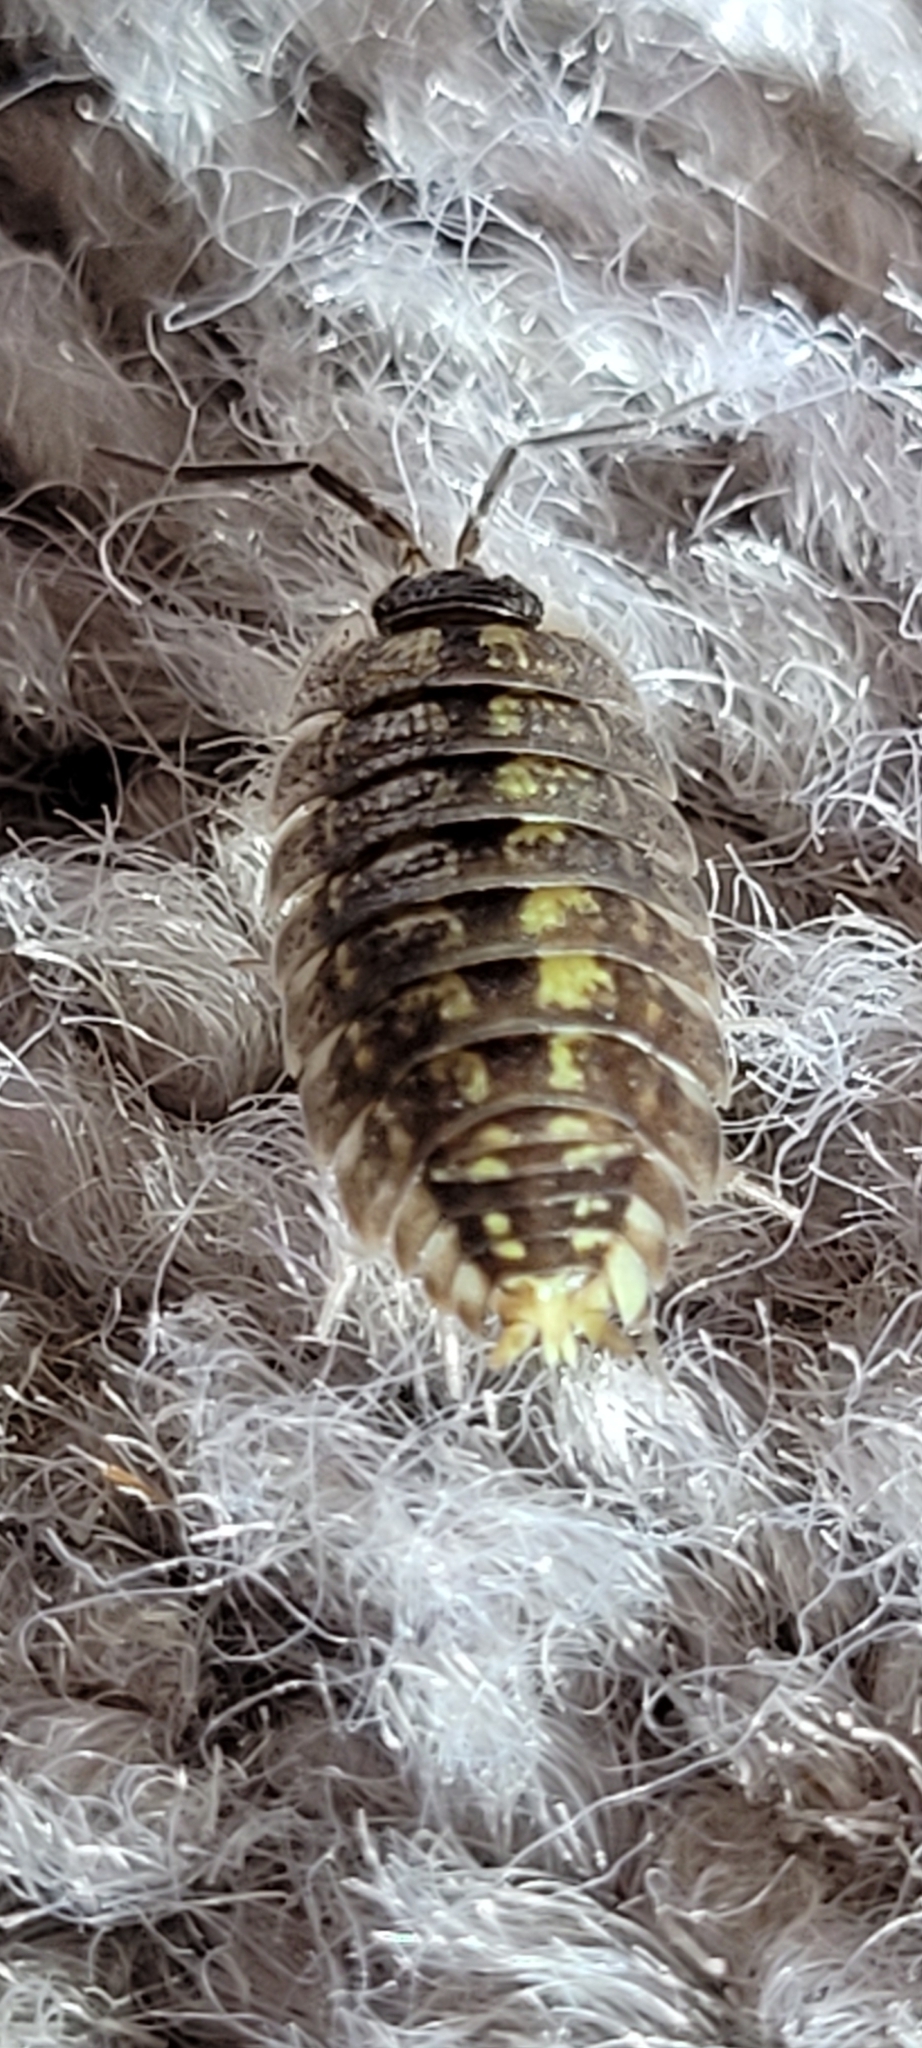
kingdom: Animalia
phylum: Arthropoda
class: Malacostraca
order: Isopoda
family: Porcellionidae
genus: Porcellio
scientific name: Porcellio spinicornis
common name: Painted woodlouse
